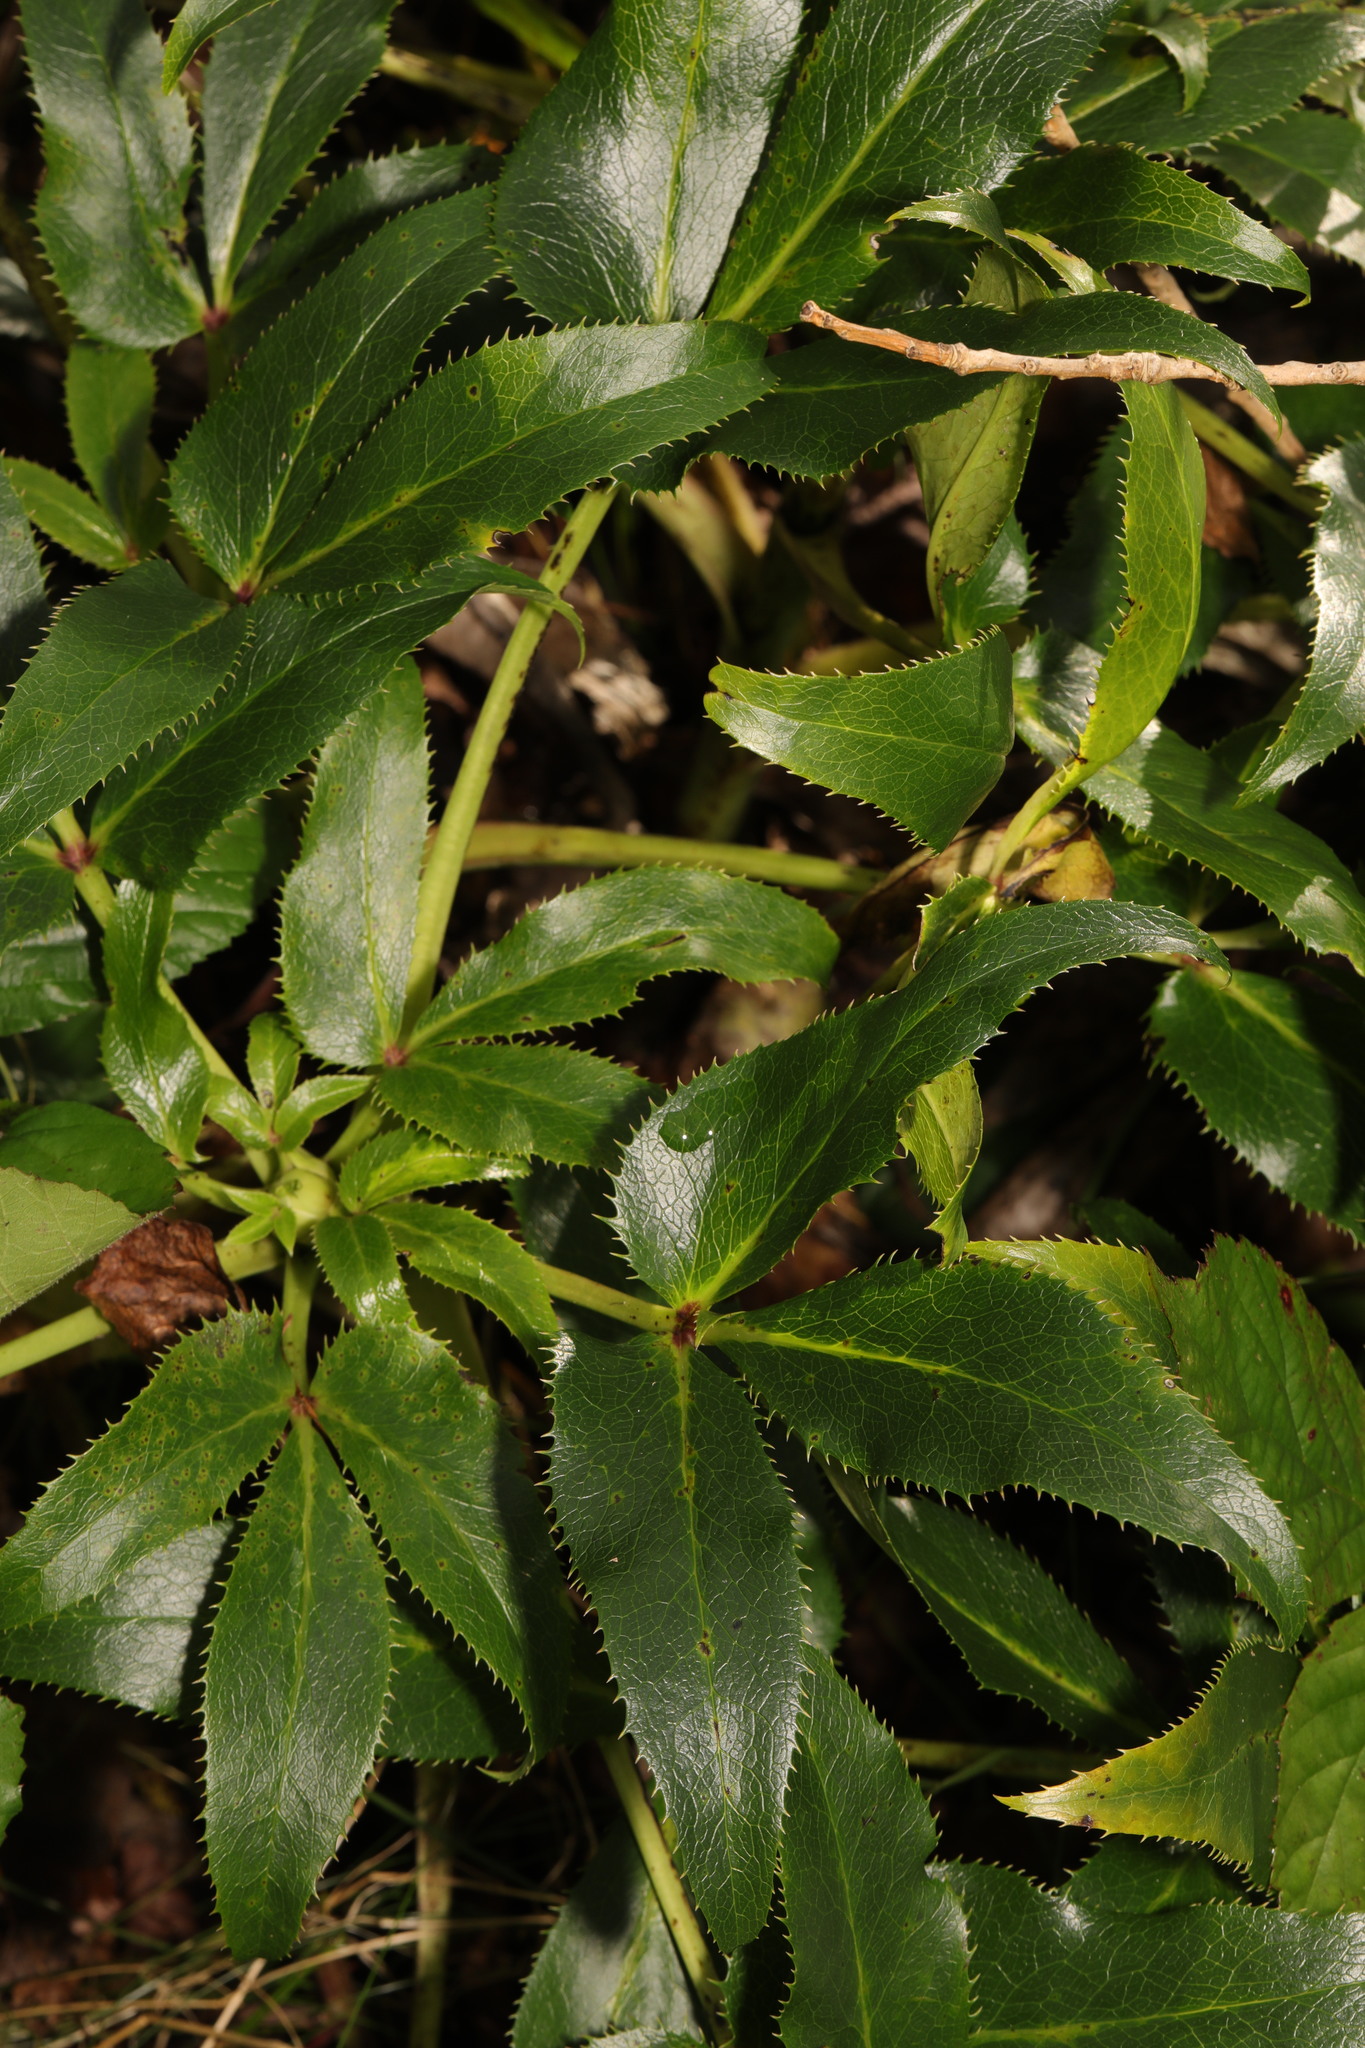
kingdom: Plantae
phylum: Tracheophyta
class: Magnoliopsida
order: Ranunculales
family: Ranunculaceae
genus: Helleborus
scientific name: Helleborus argutifolius
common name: Corsican hellebore
